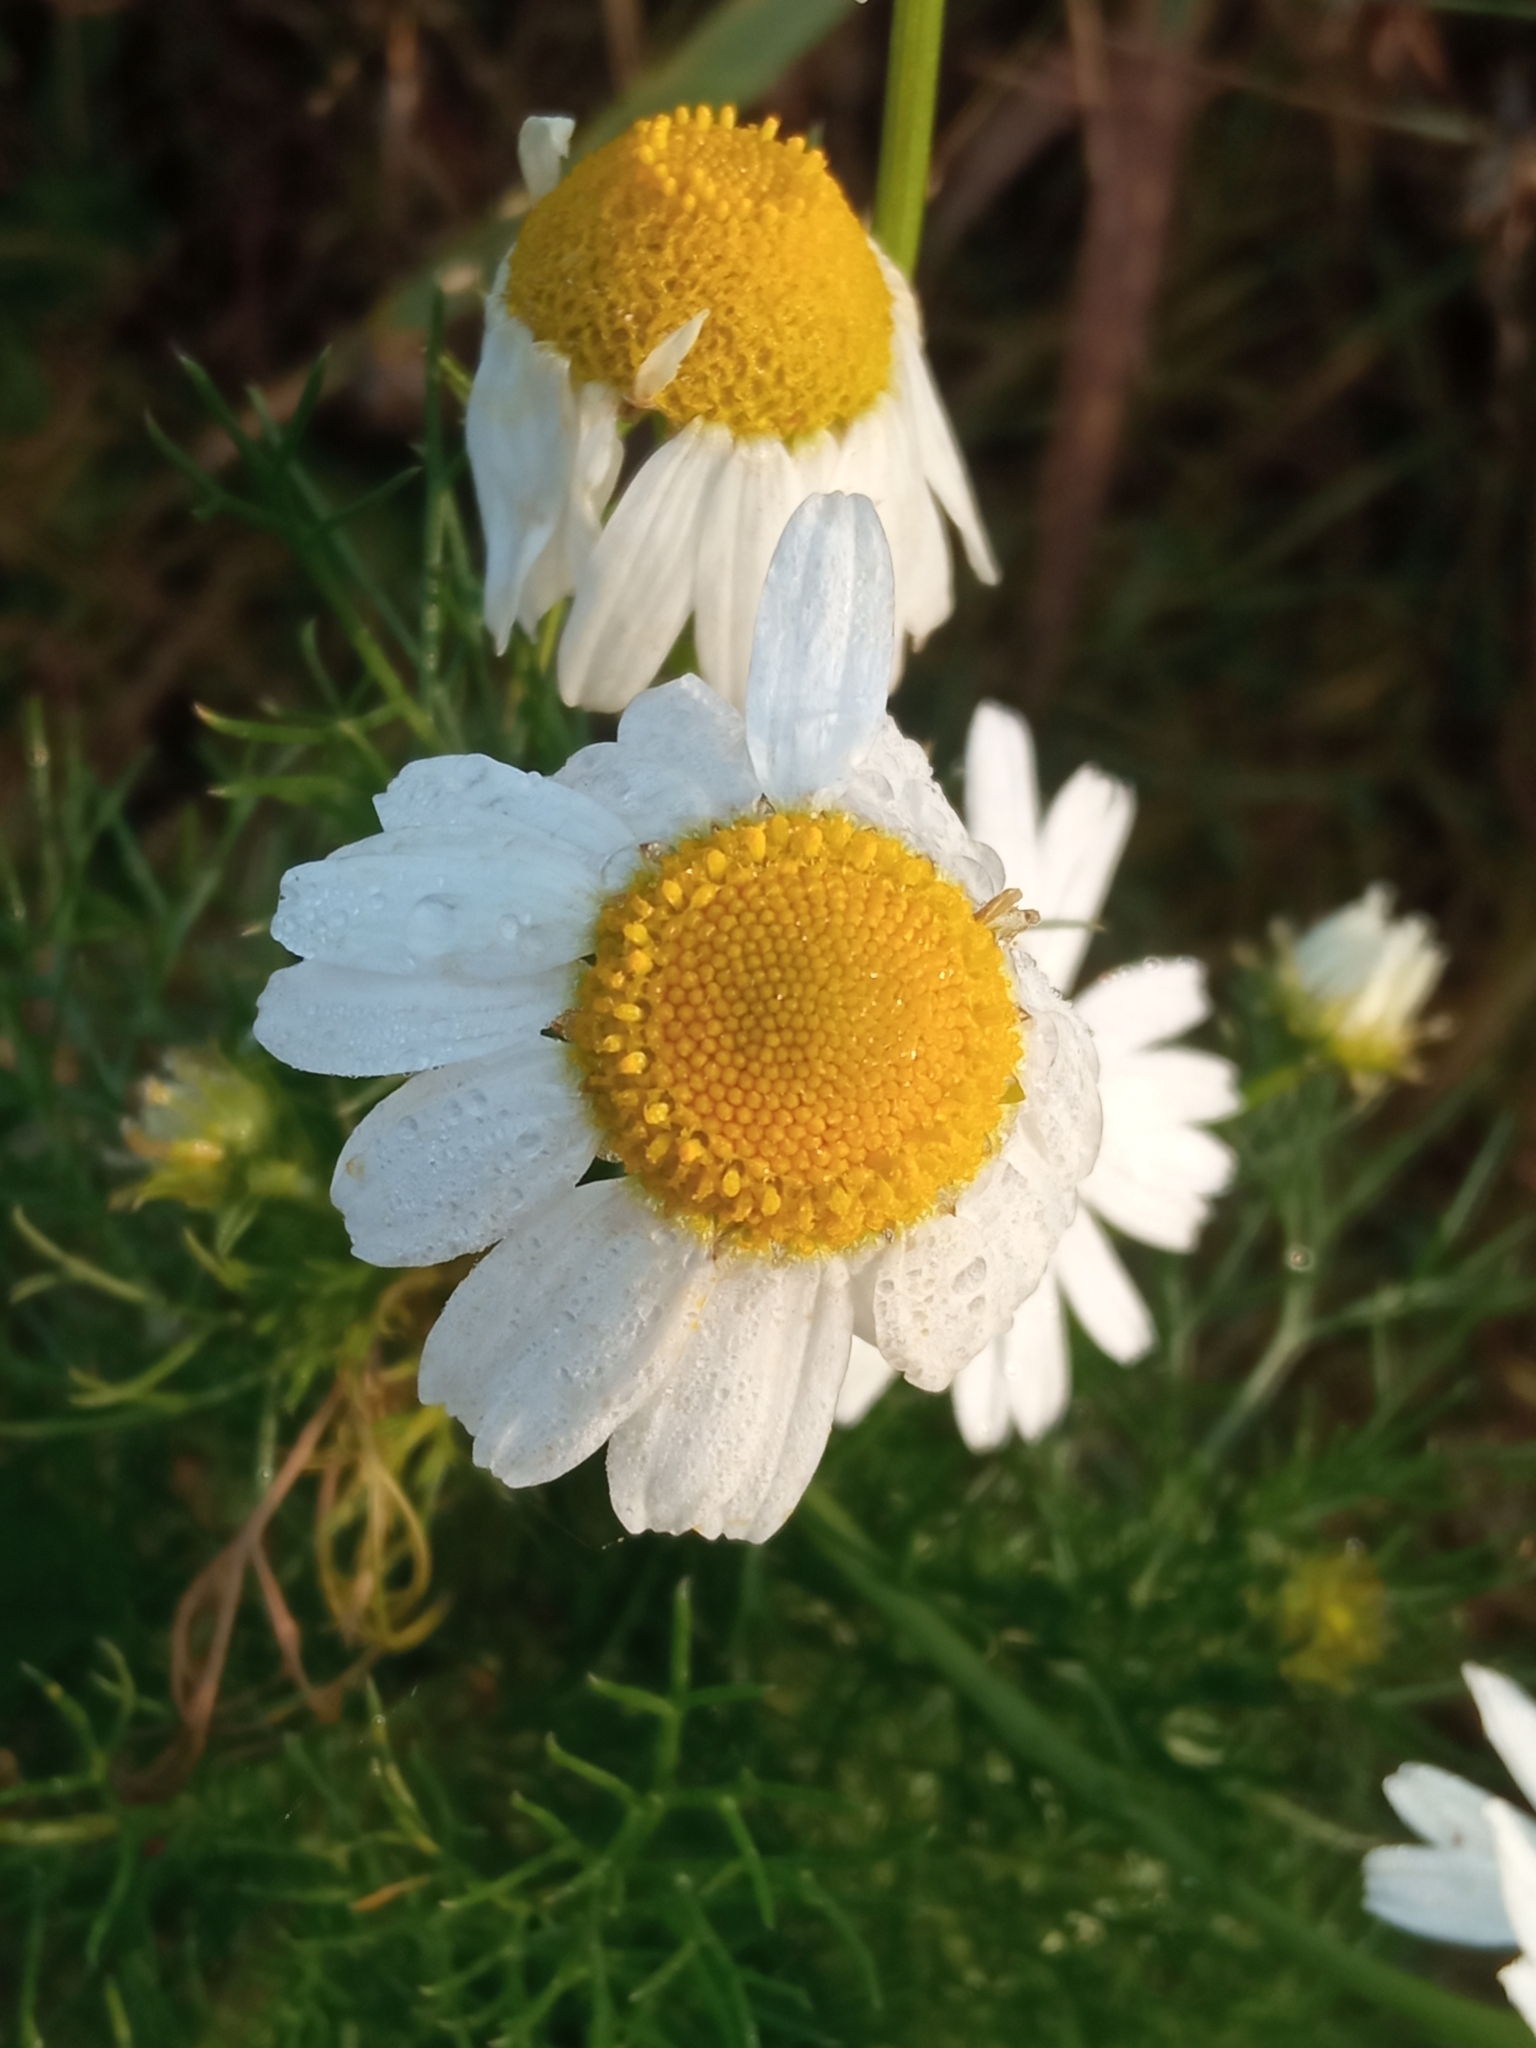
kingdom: Plantae
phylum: Tracheophyta
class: Magnoliopsida
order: Asterales
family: Asteraceae
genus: Tripleurospermum
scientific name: Tripleurospermum inodorum
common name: Scentless mayweed
